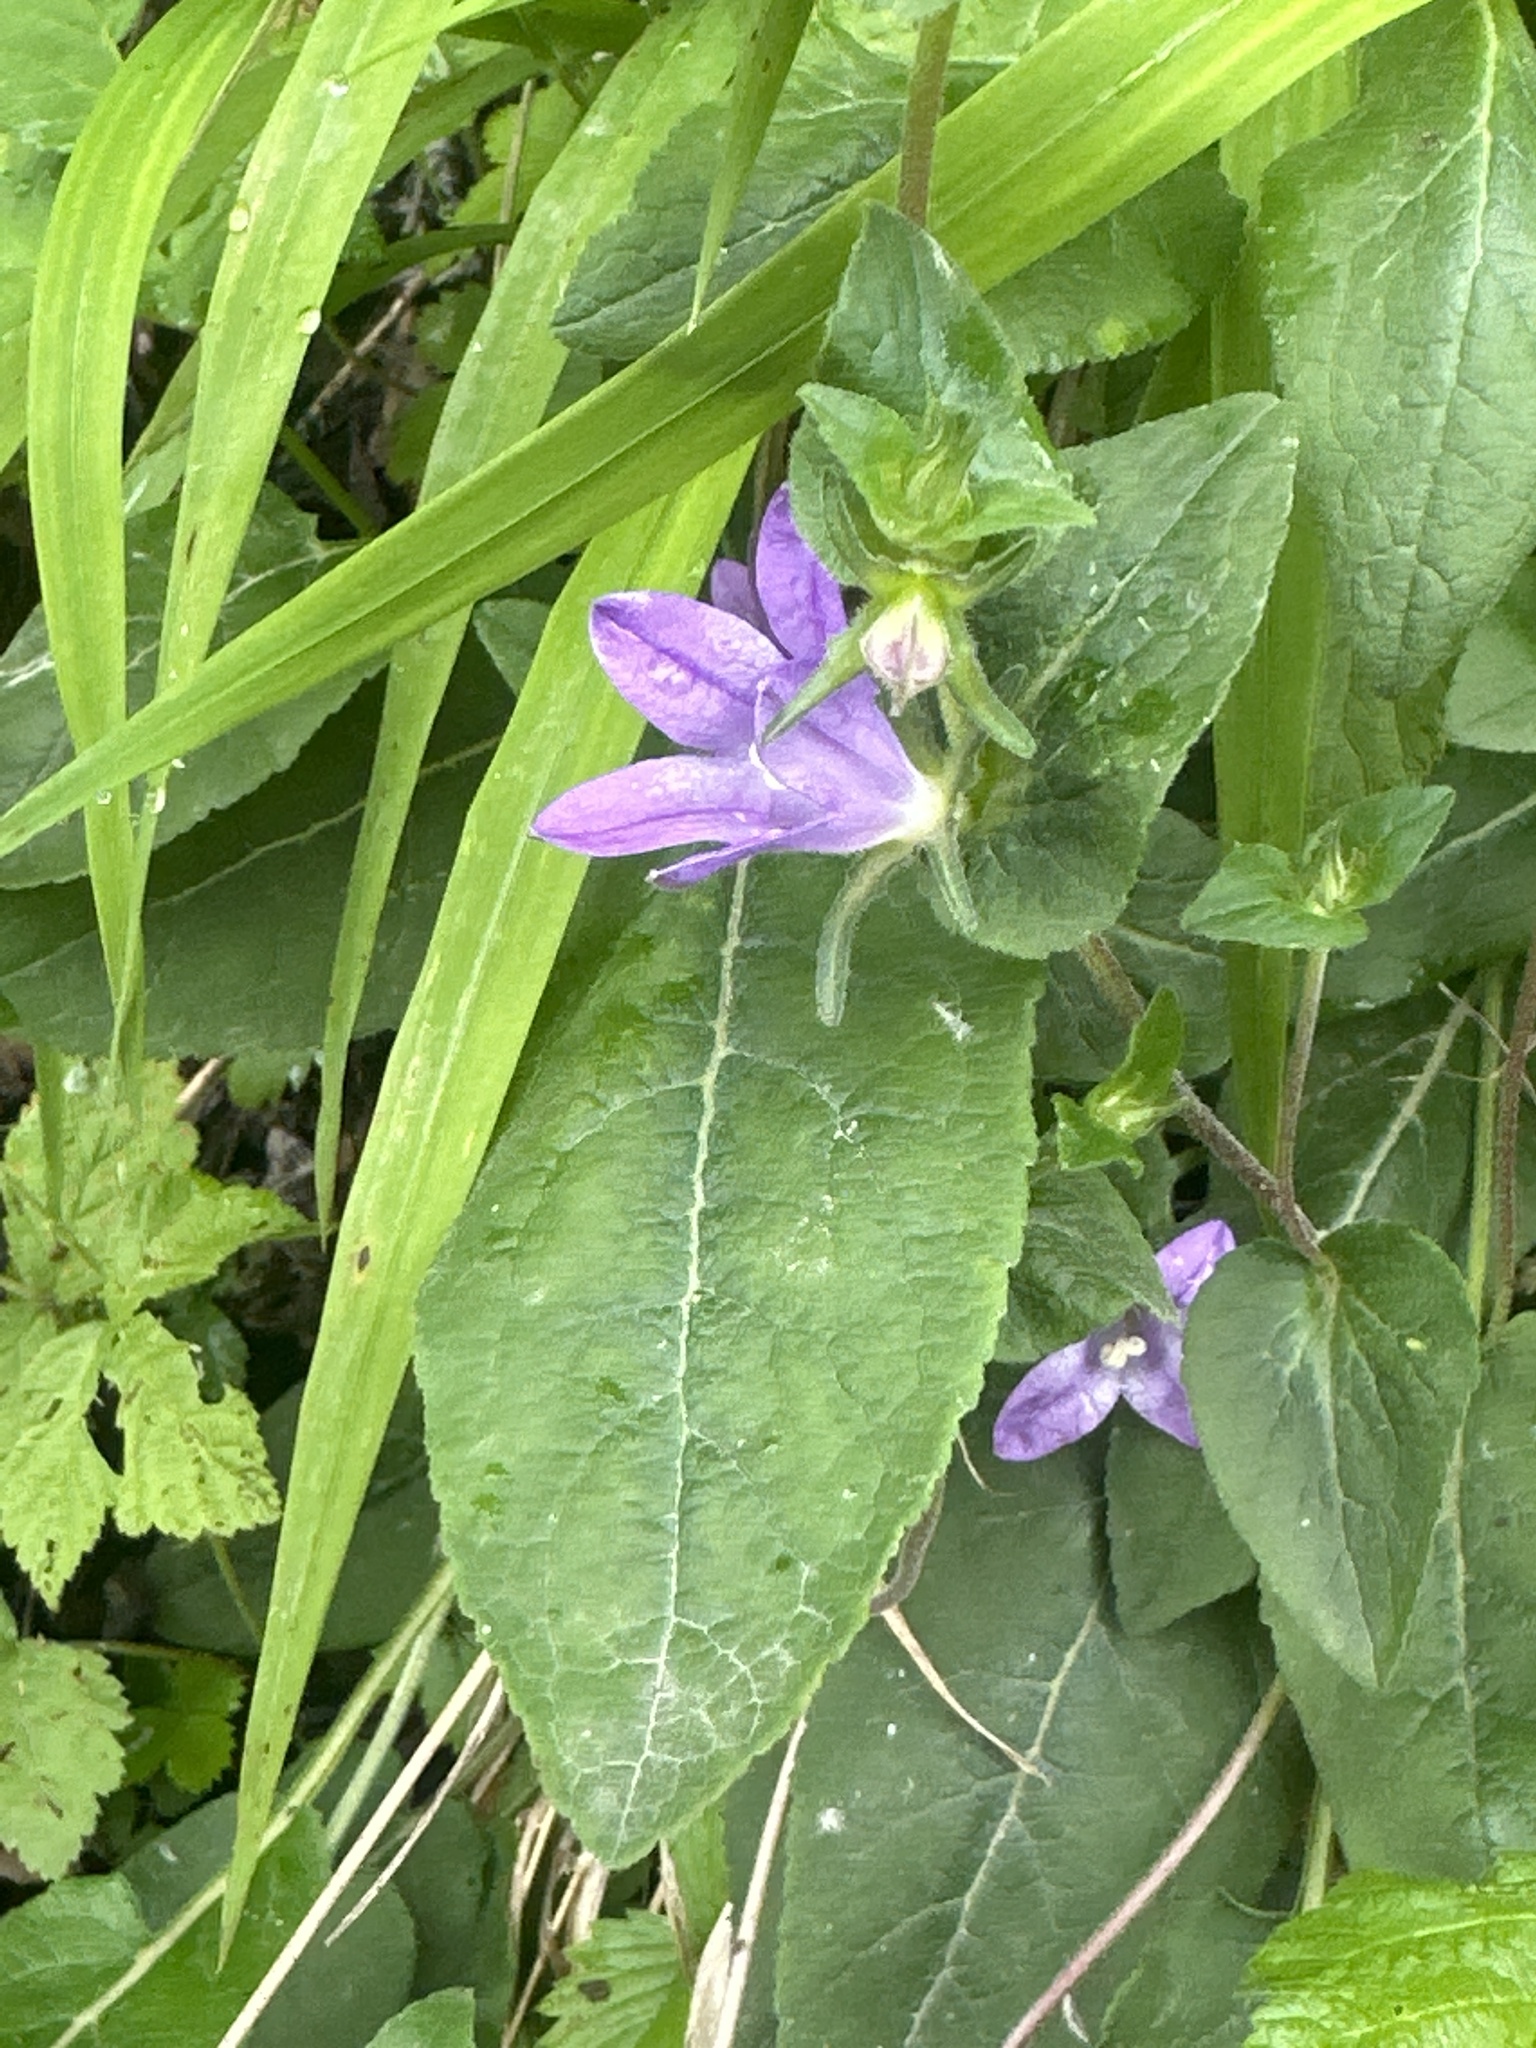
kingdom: Plantae
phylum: Tracheophyta
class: Magnoliopsida
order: Asterales
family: Campanulaceae
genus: Campanula
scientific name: Campanula glomerata
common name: Clustered bellflower
